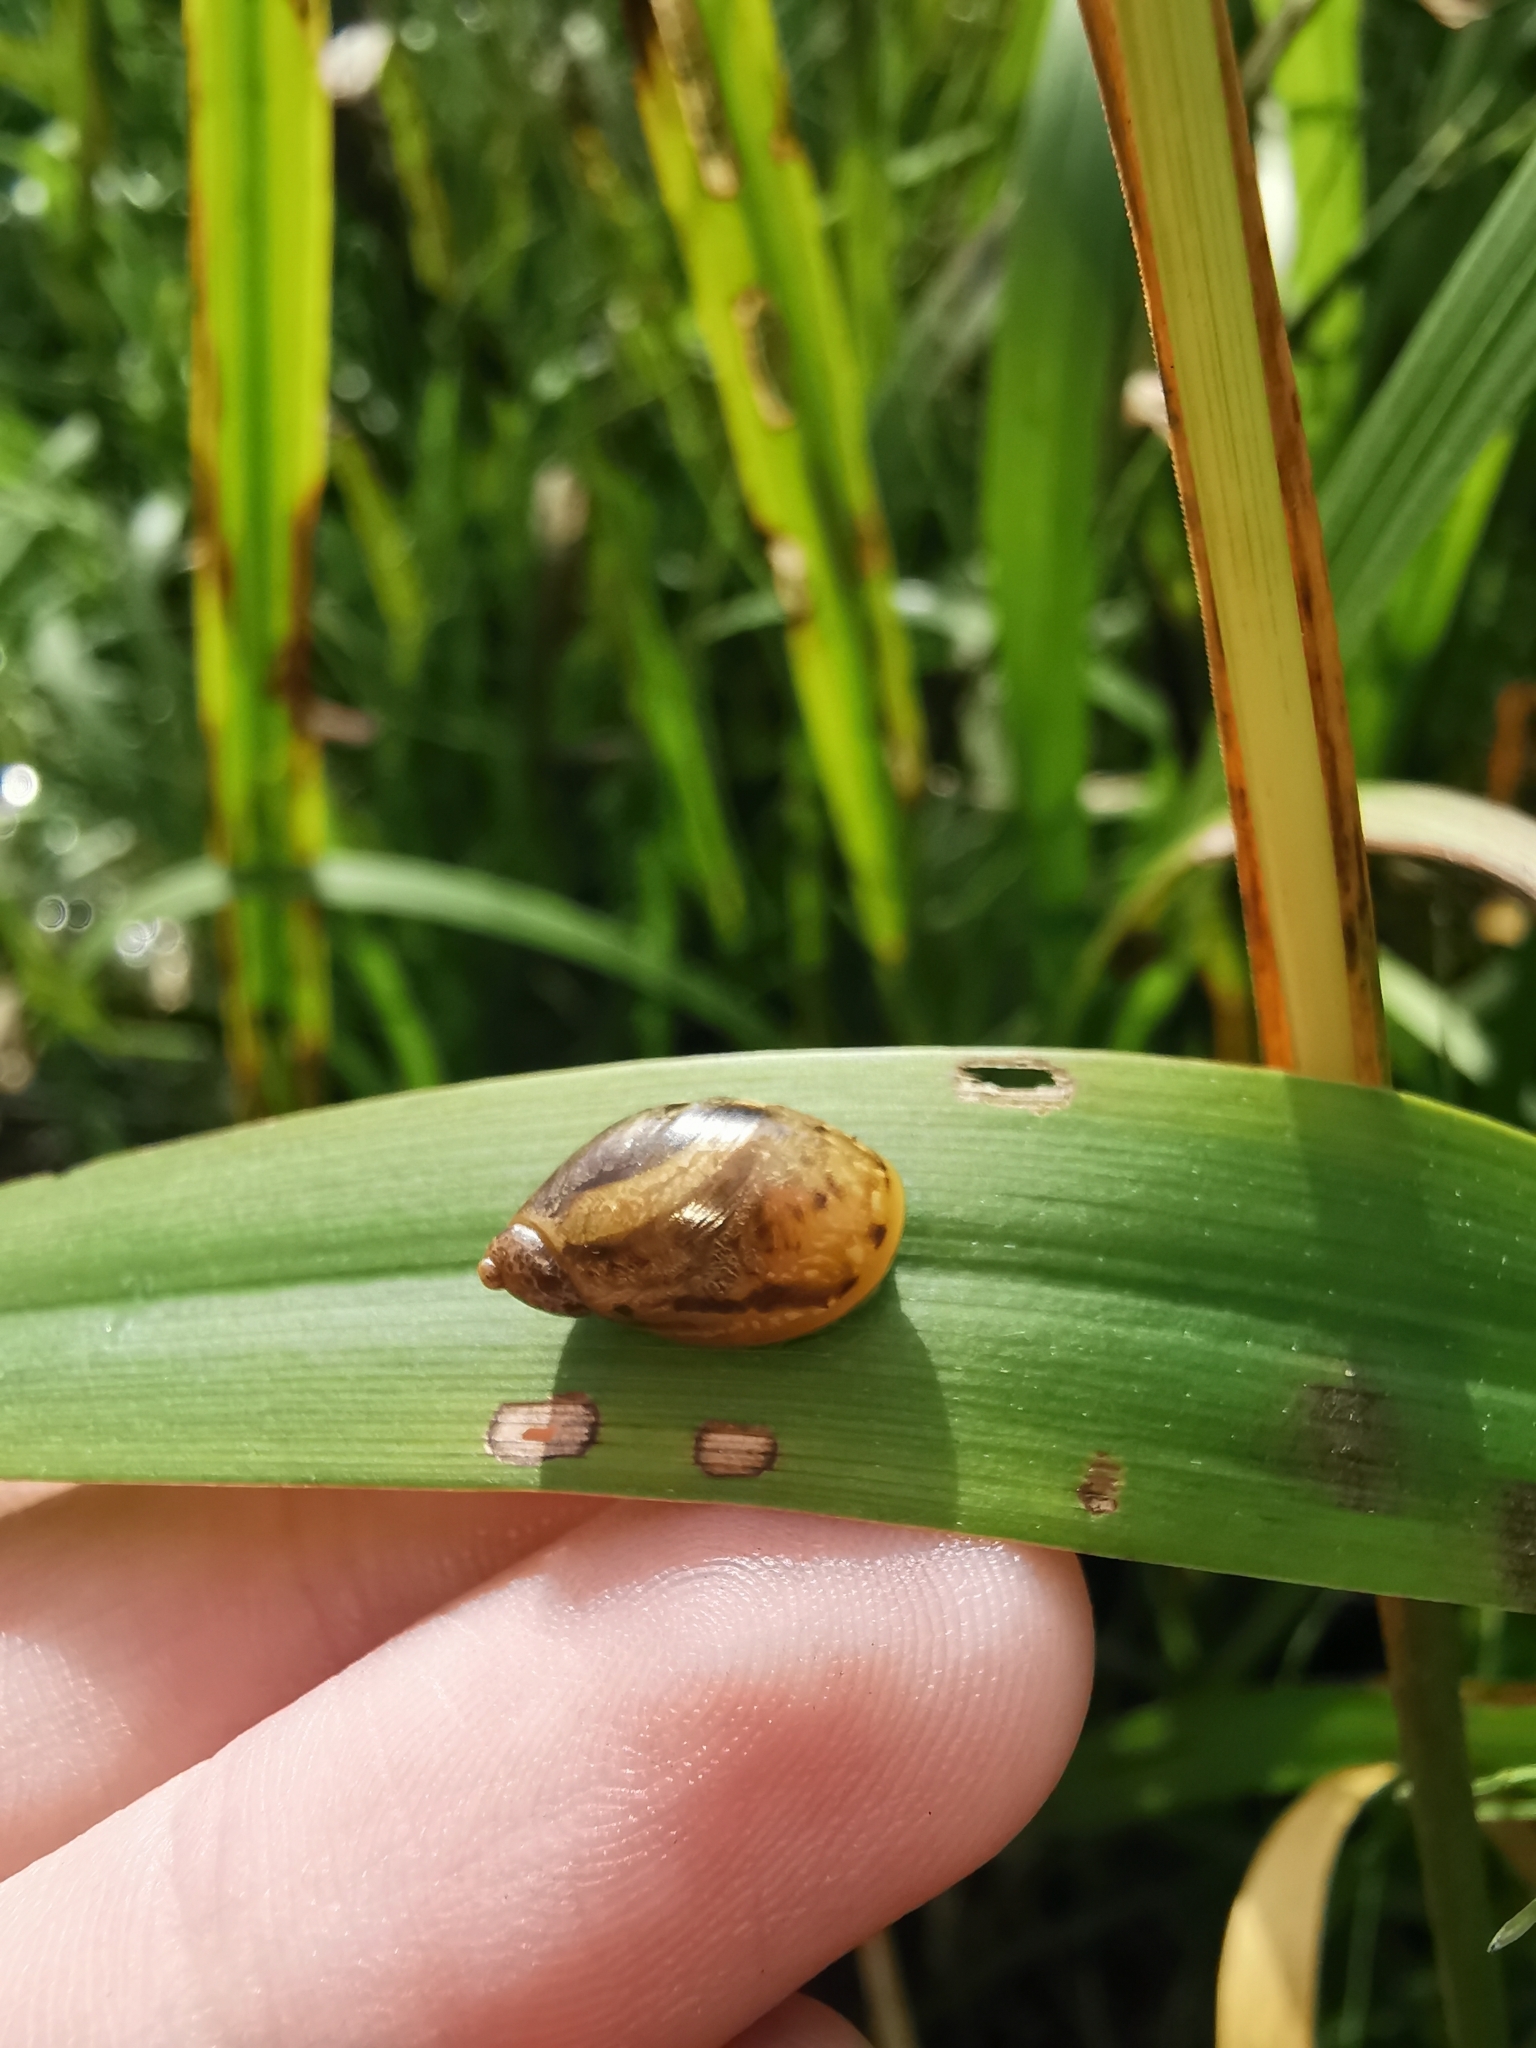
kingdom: Animalia
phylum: Mollusca
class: Gastropoda
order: Stylommatophora
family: Succineidae
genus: Succinea
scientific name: Succinea putris
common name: European ambersnail
